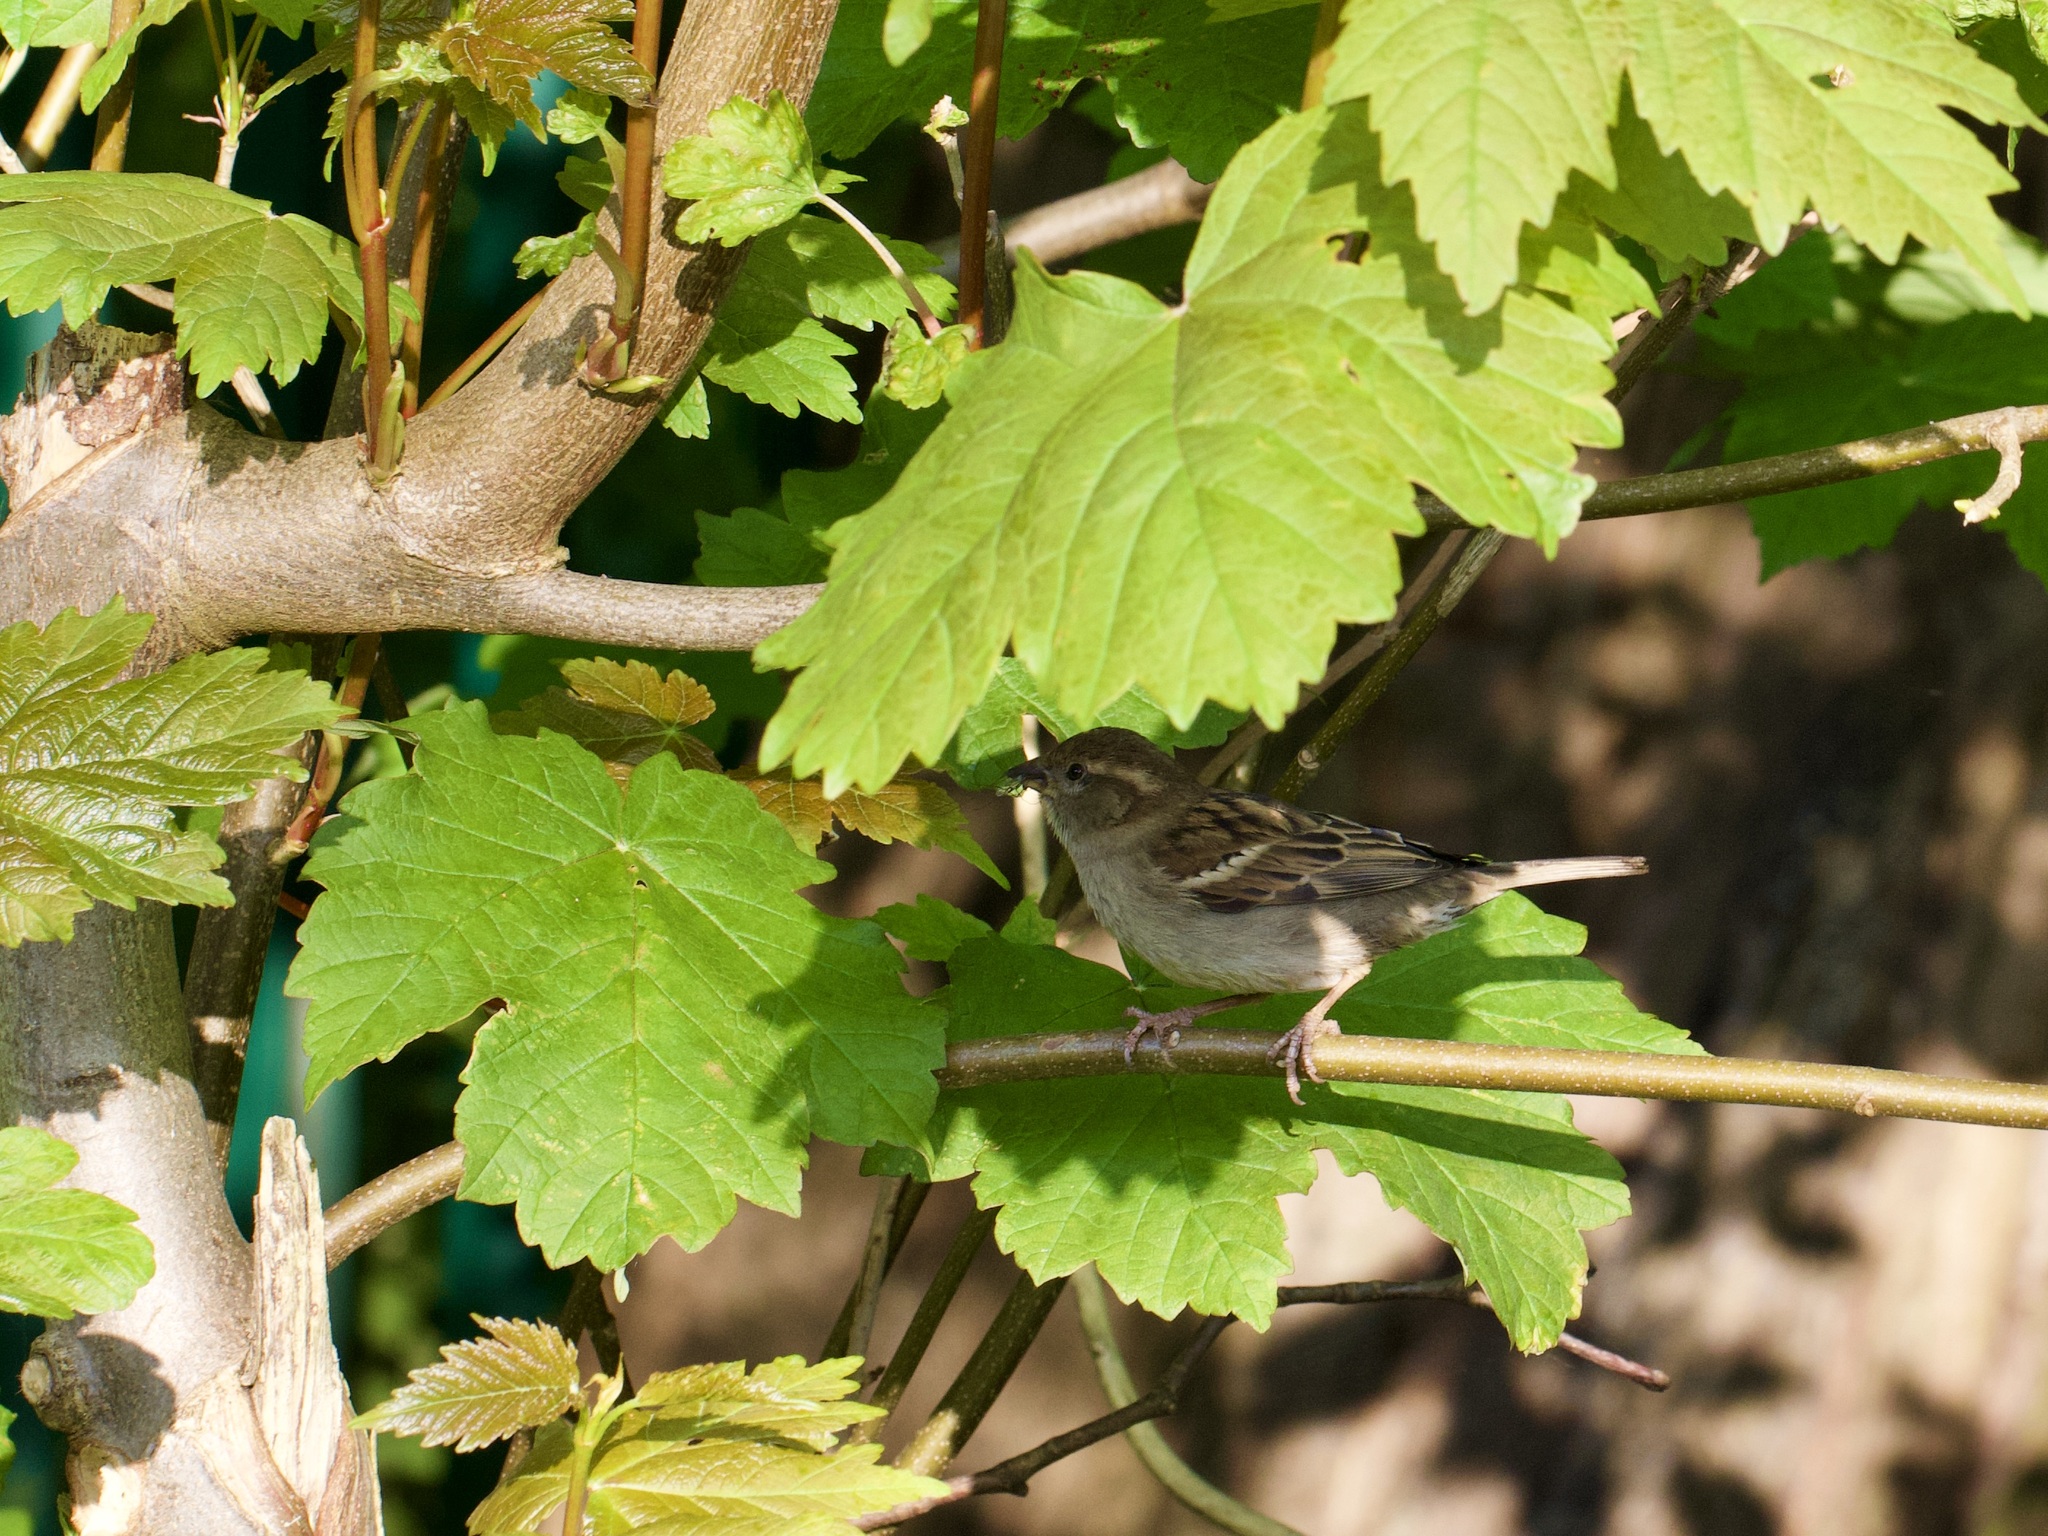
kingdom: Animalia
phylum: Chordata
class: Aves
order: Passeriformes
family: Passeridae
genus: Passer
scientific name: Passer domesticus
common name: House sparrow
